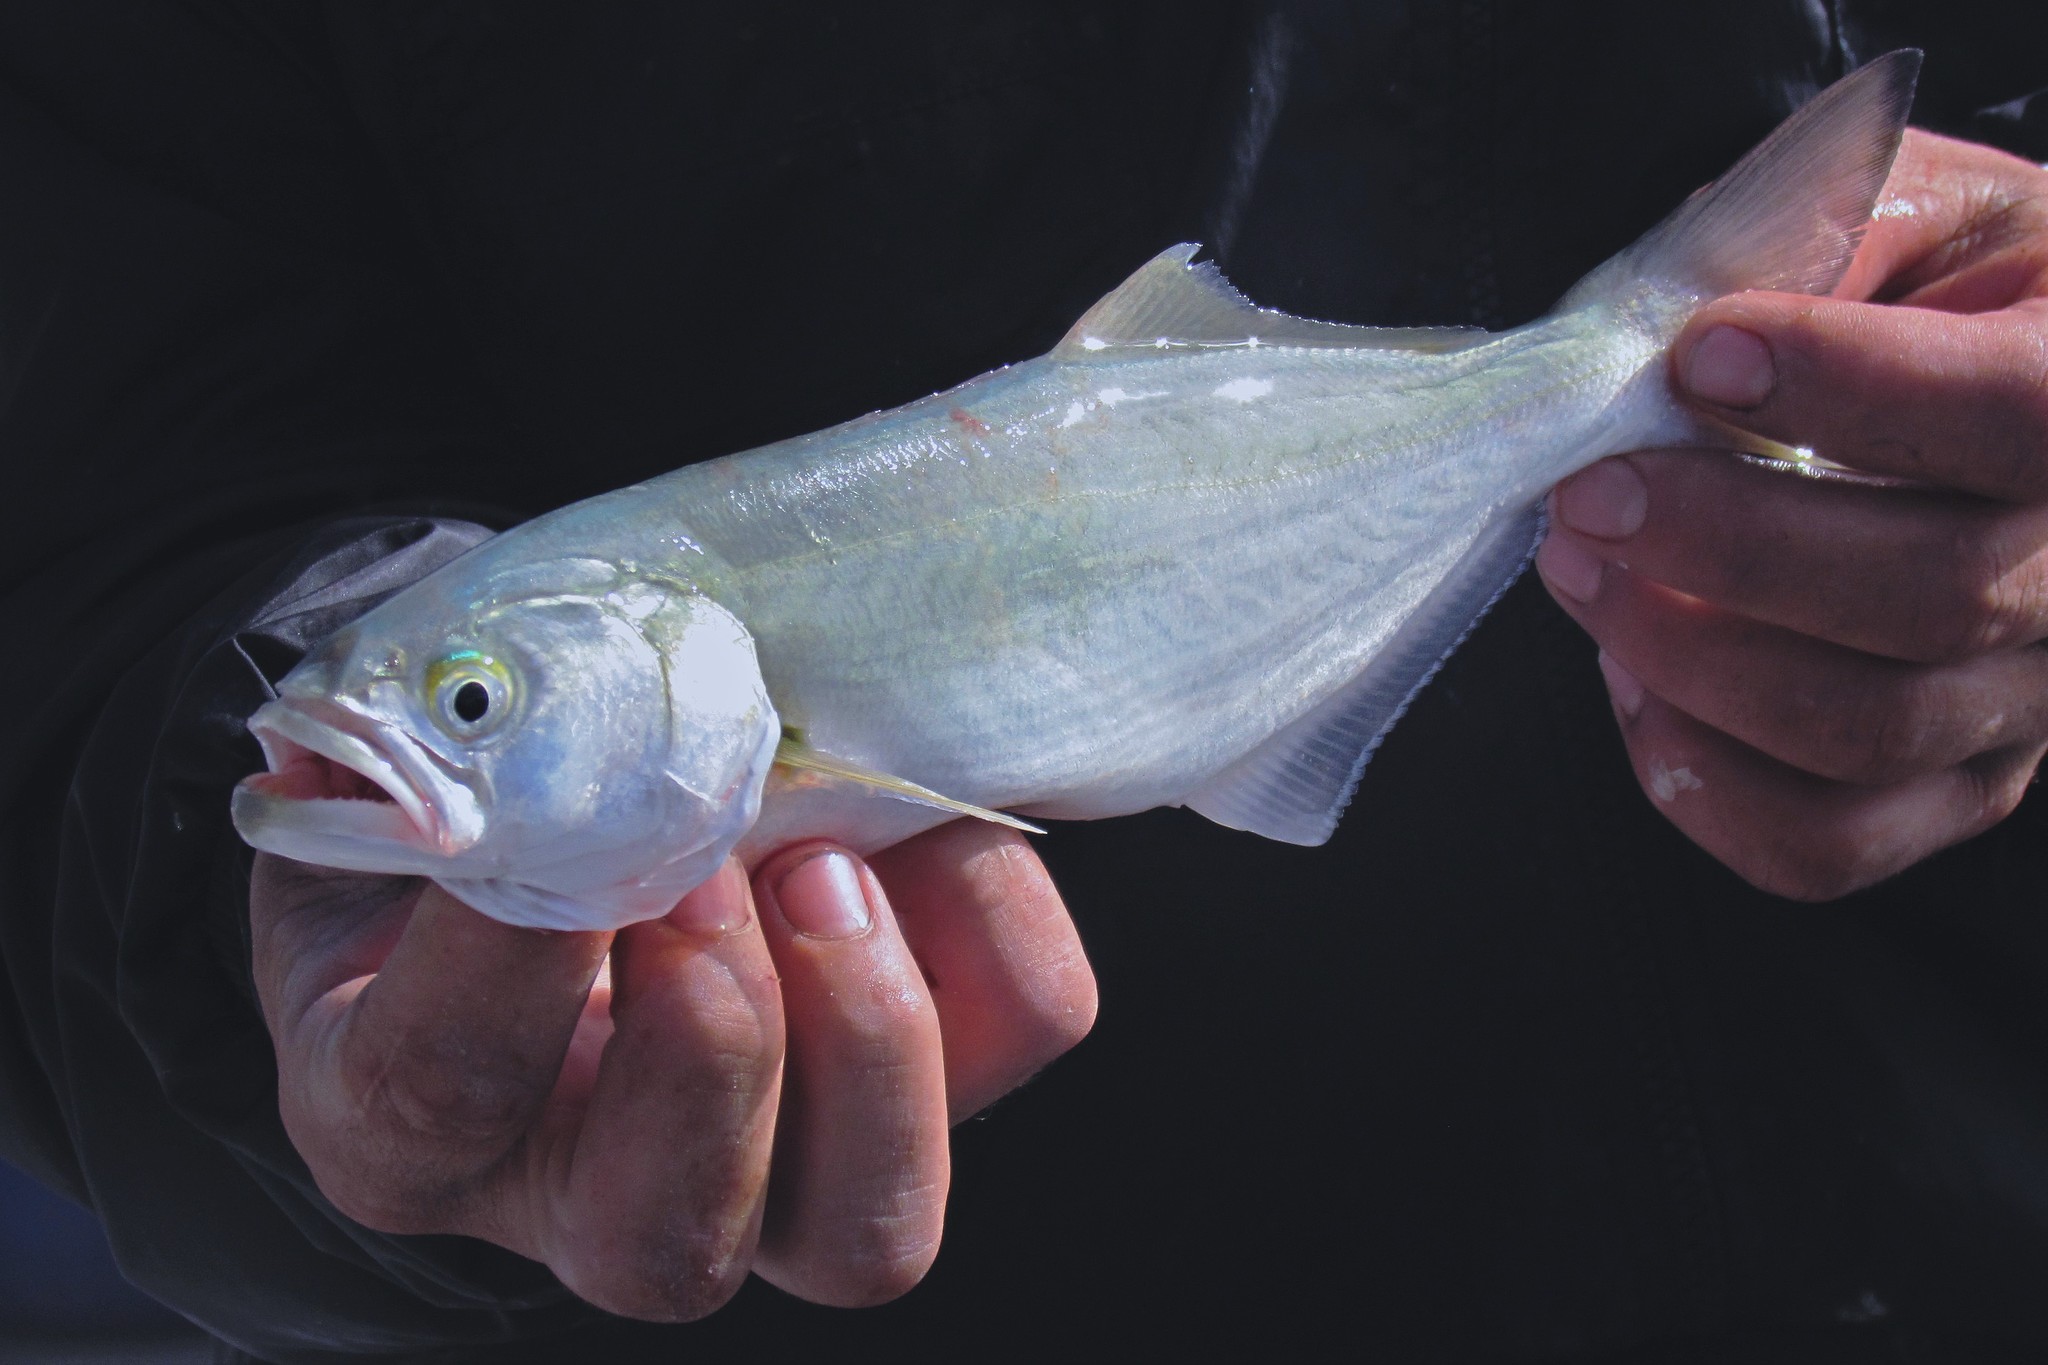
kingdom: Animalia
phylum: Chordata
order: Perciformes
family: Pomatomidae
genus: Pomatomus
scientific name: Pomatomus saltatrix
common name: Bluefish
